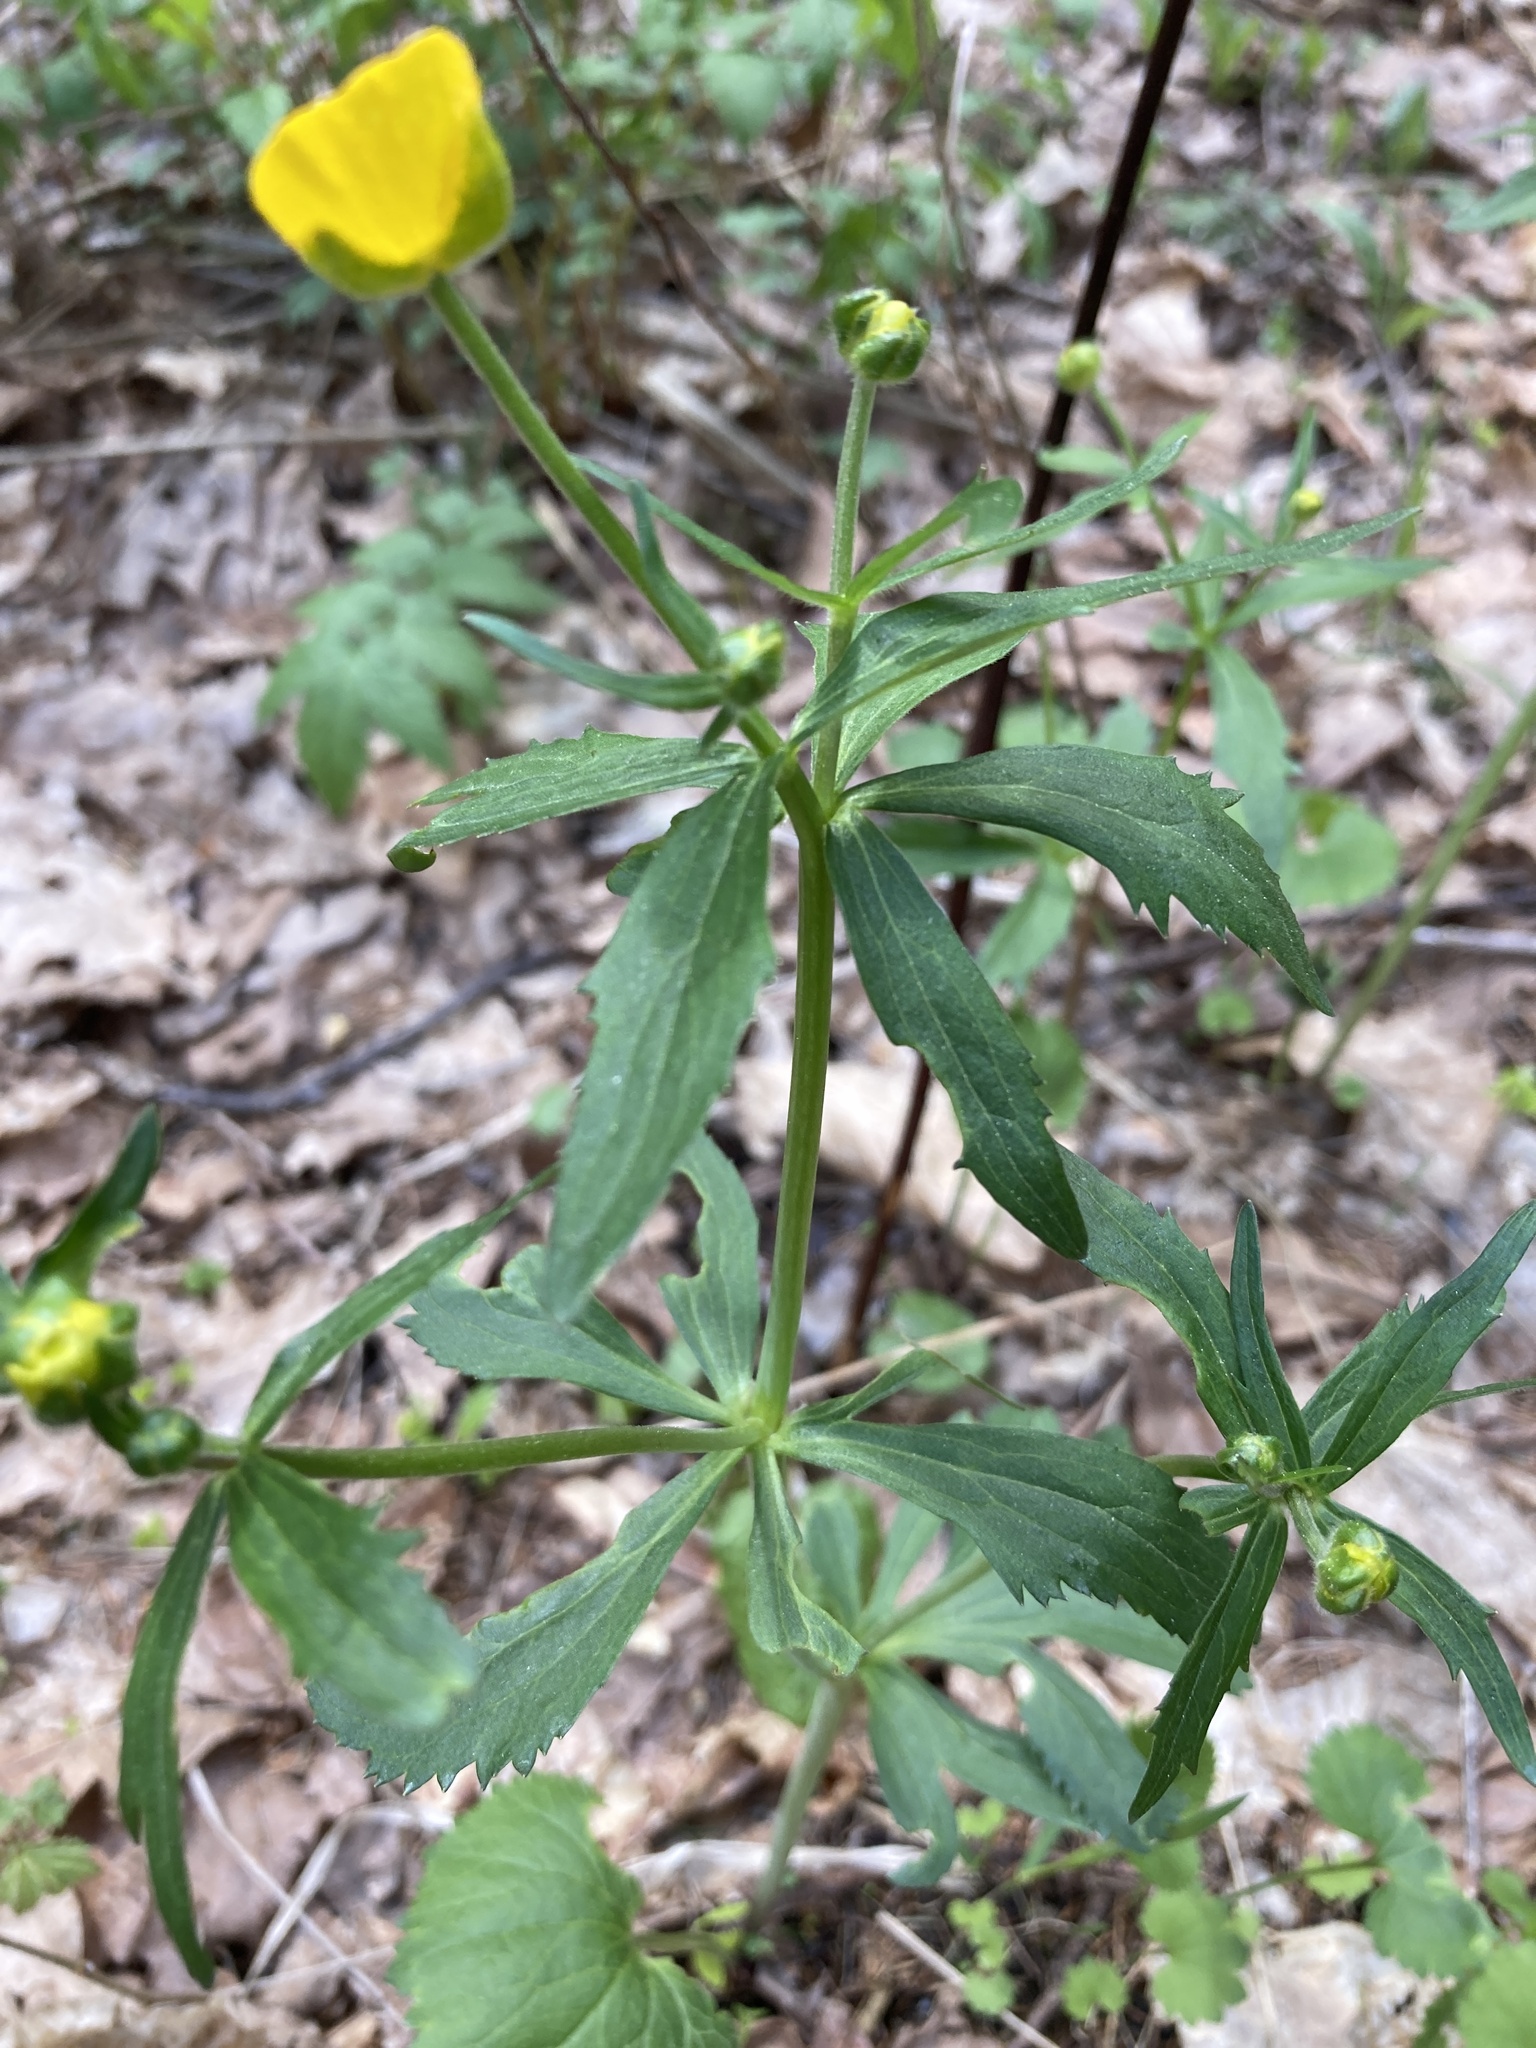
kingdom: Plantae
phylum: Tracheophyta
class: Magnoliopsida
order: Ranunculales
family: Ranunculaceae
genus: Ranunculus
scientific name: Ranunculus cassubicus
